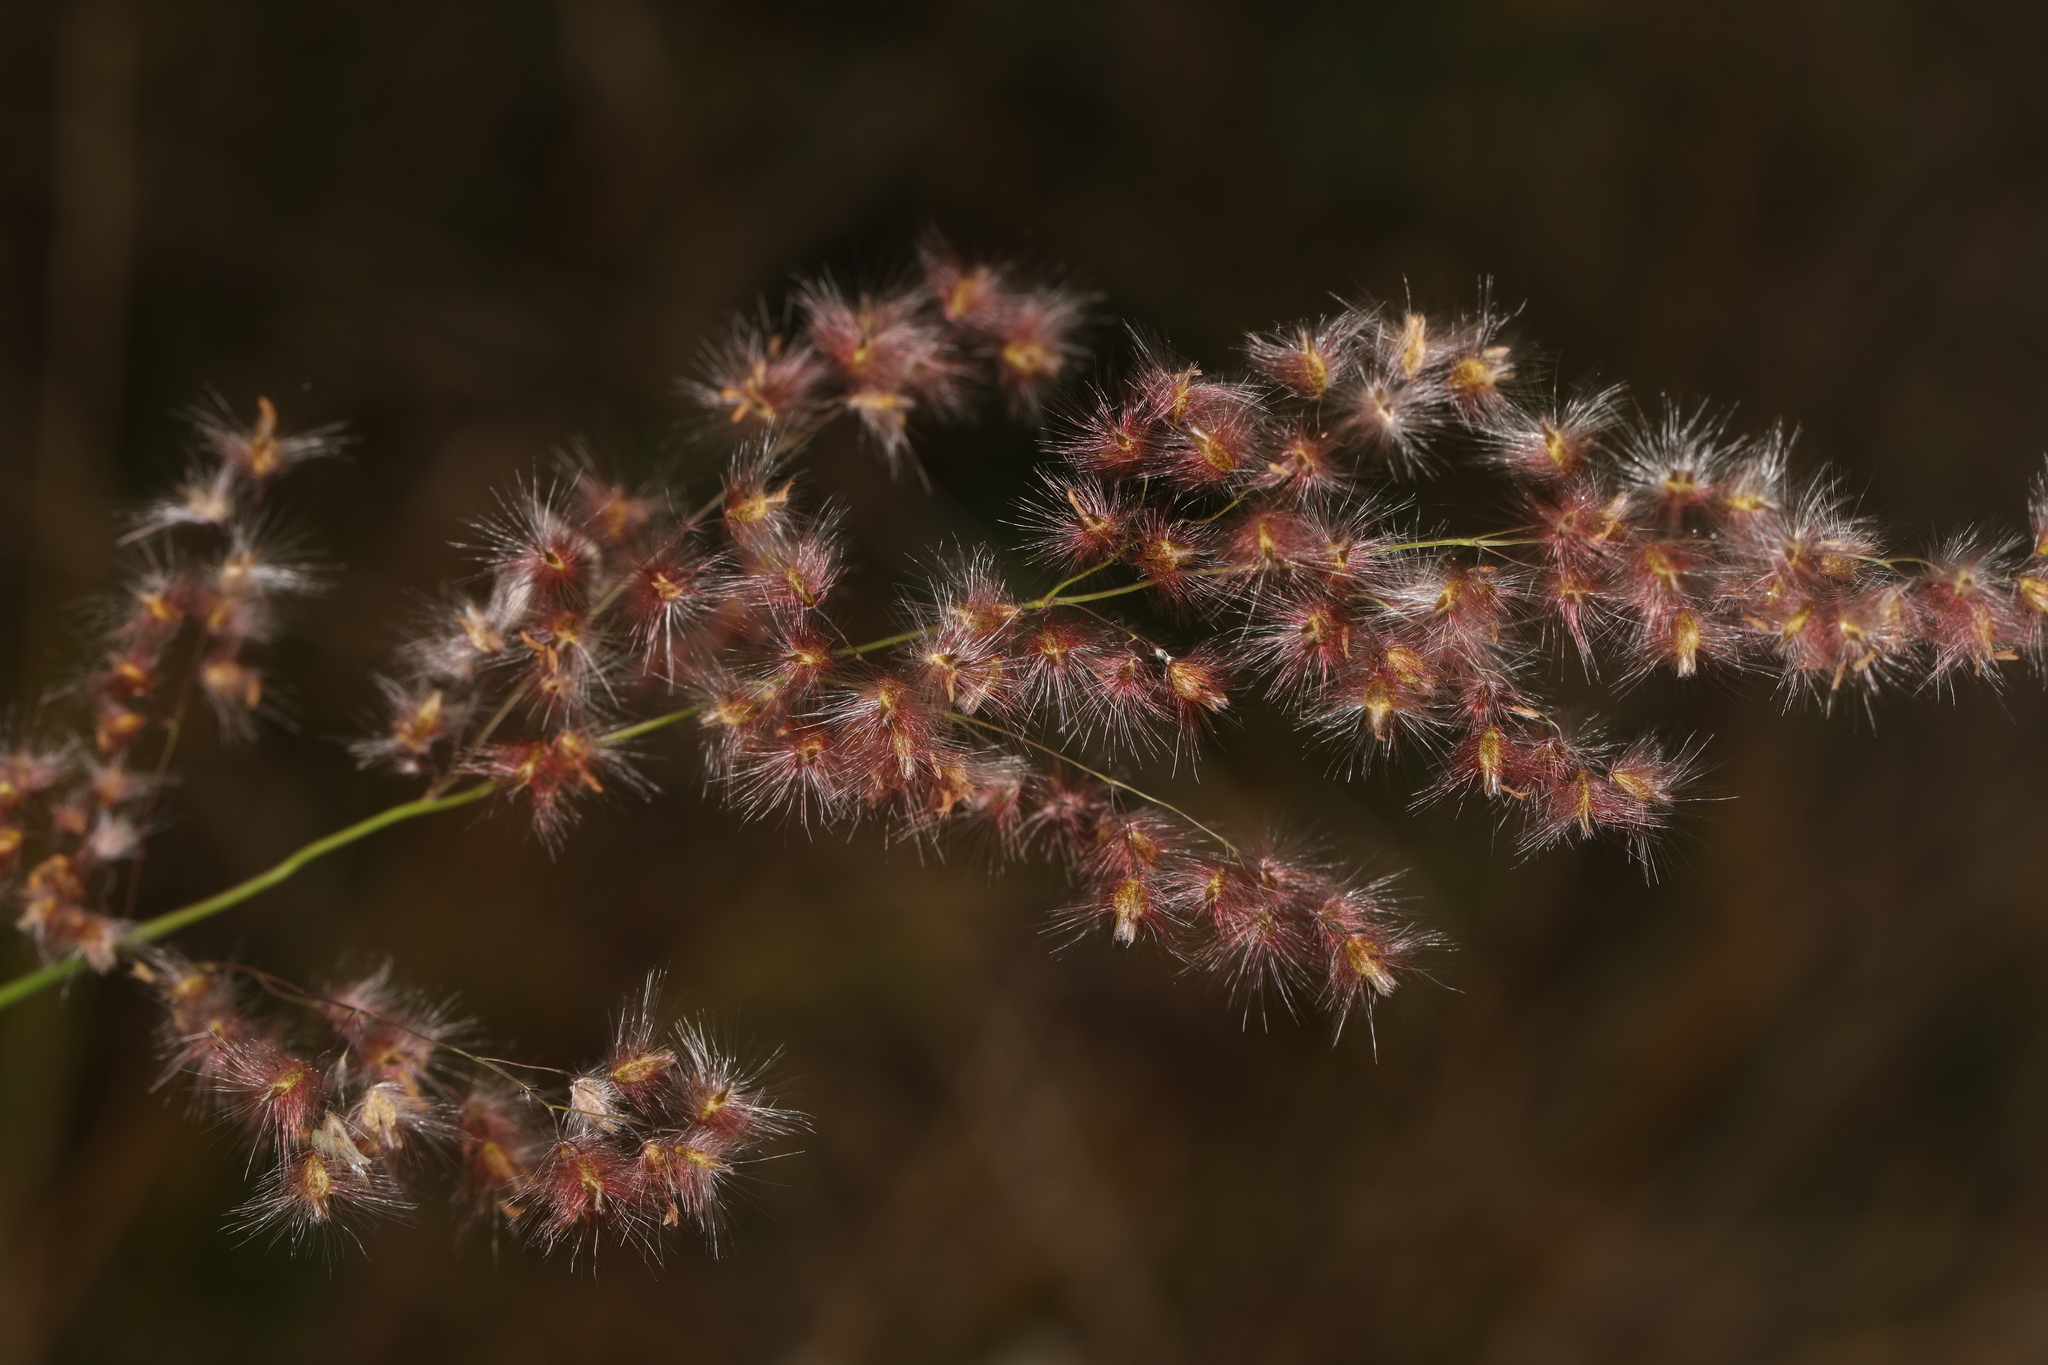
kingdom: Plantae
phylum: Tracheophyta
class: Liliopsida
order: Poales
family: Poaceae
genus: Melinis
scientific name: Melinis repens
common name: Rose natal grass
